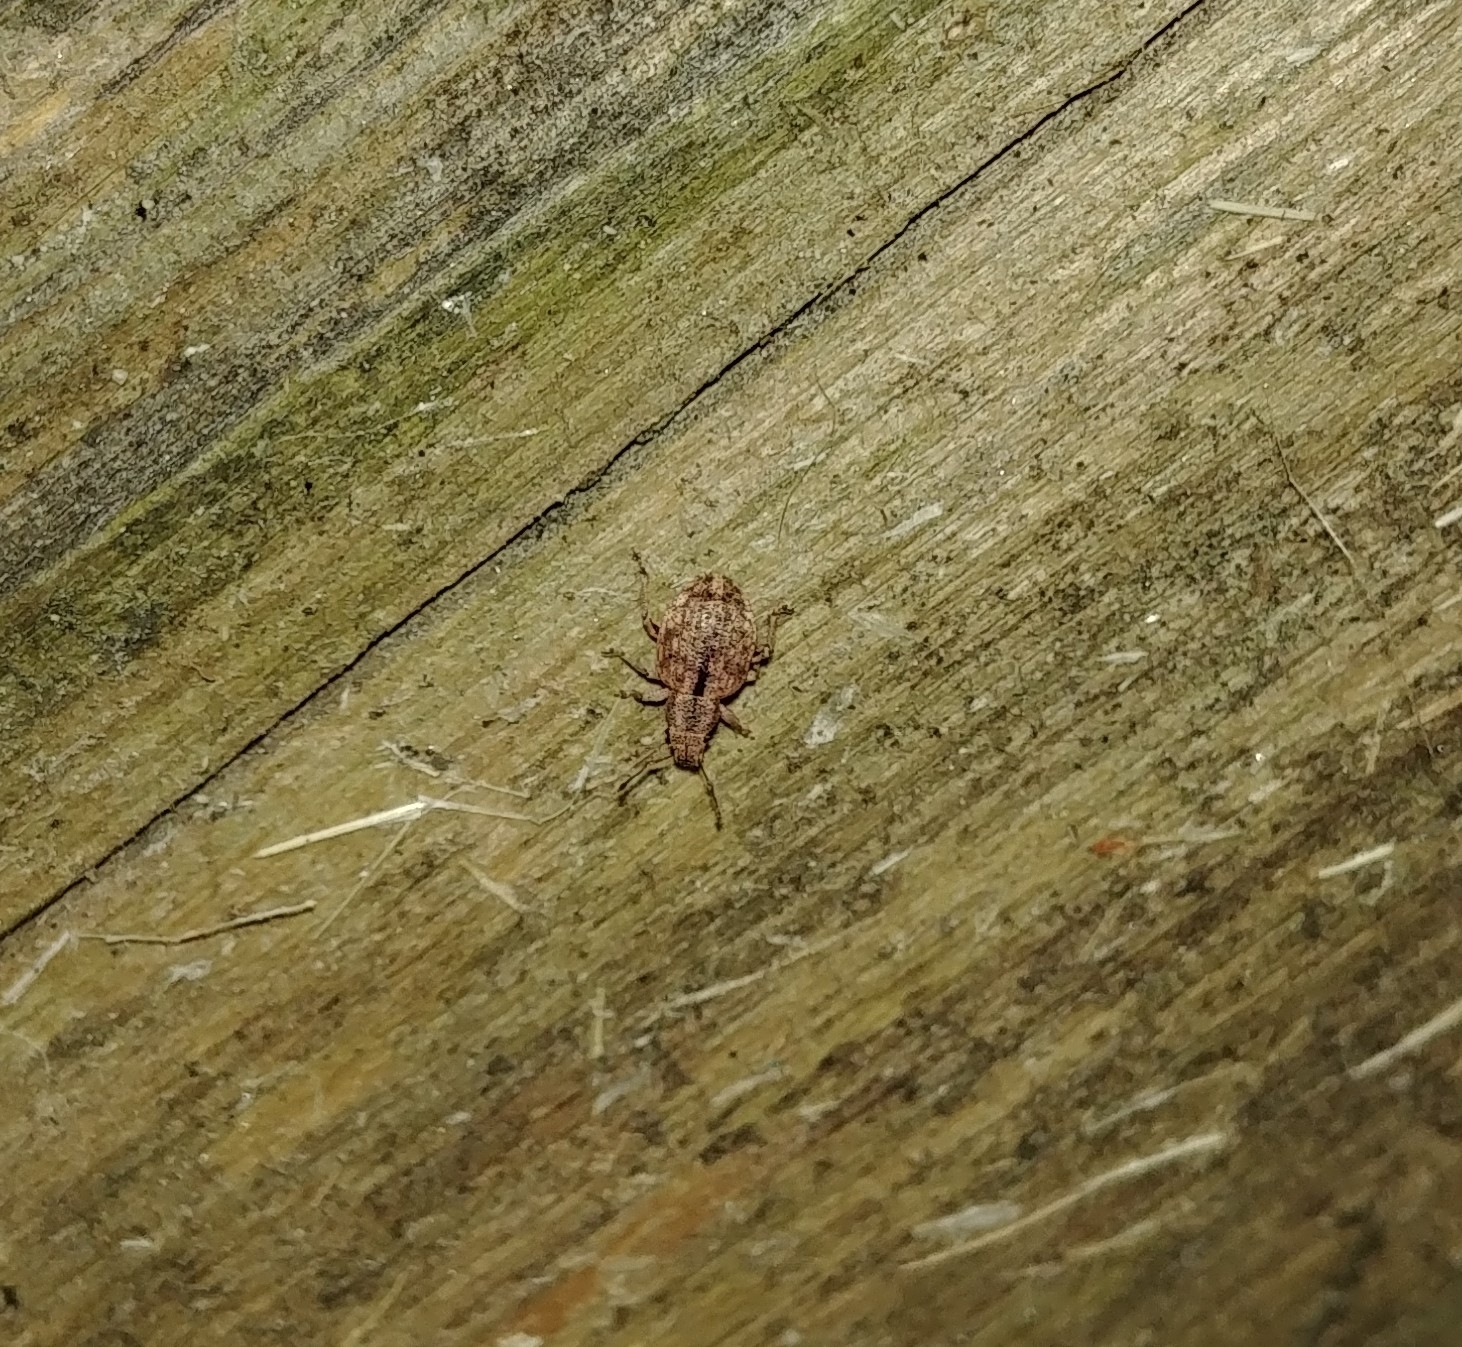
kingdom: Animalia
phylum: Arthropoda
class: Insecta
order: Coleoptera
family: Curculionidae
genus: Strophosoma
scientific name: Strophosoma melanogrammum
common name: Weevil
